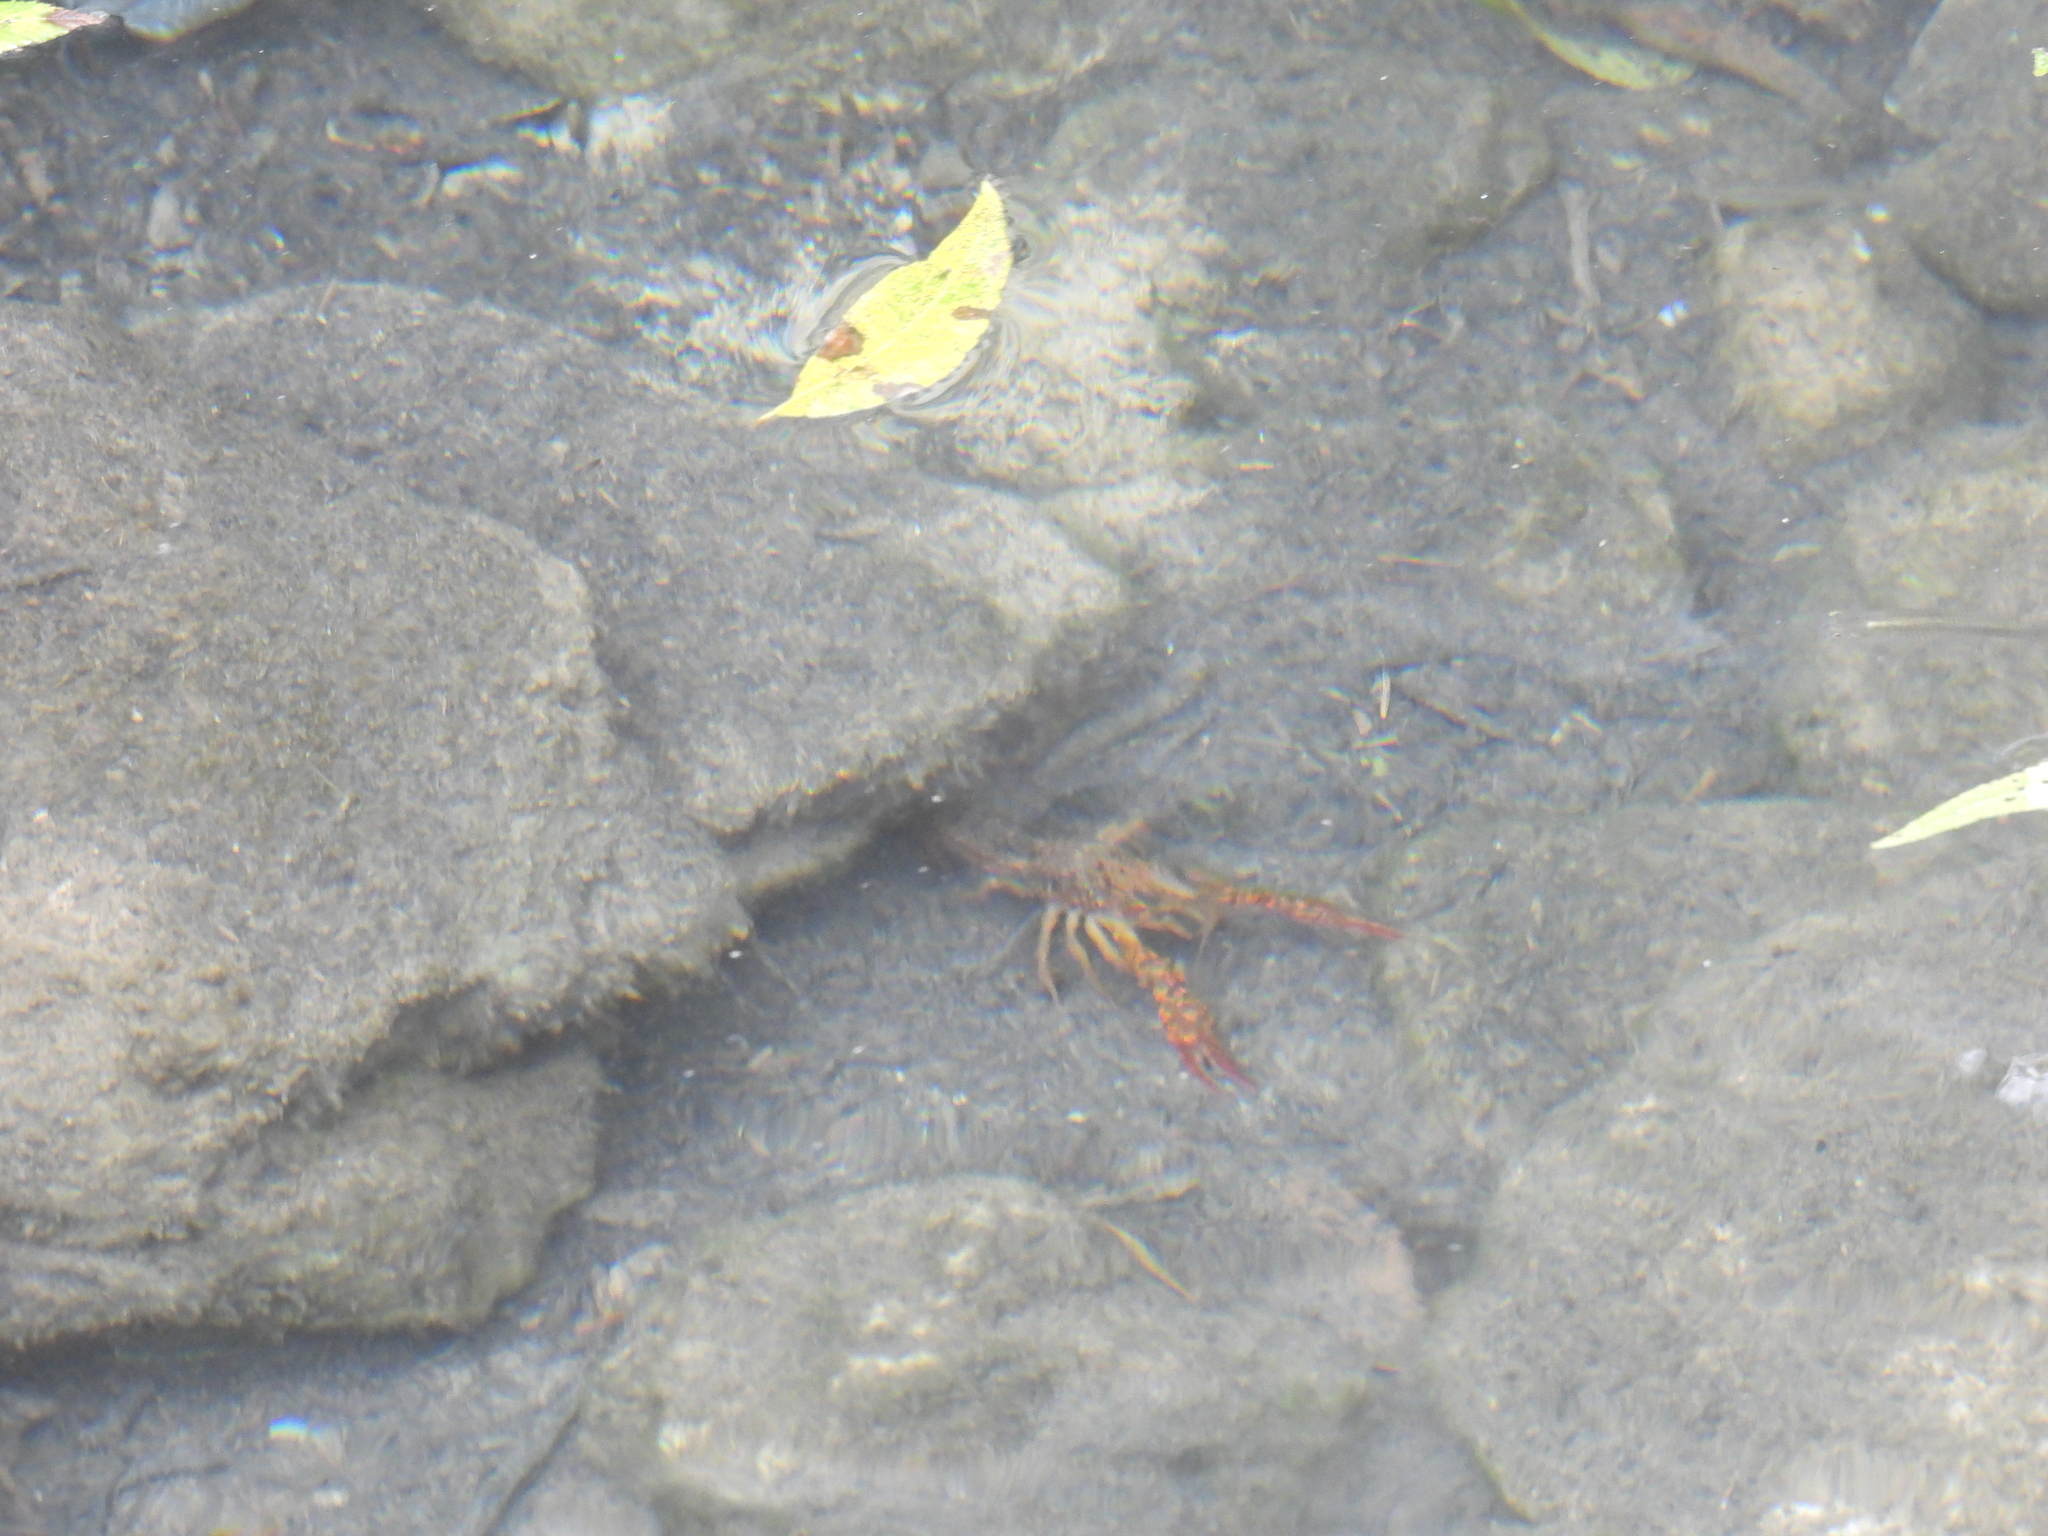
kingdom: Animalia
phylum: Arthropoda
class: Malacostraca
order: Decapoda
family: Cambaridae
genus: Procambarus
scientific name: Procambarus clarkii
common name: Red swamp crayfish
